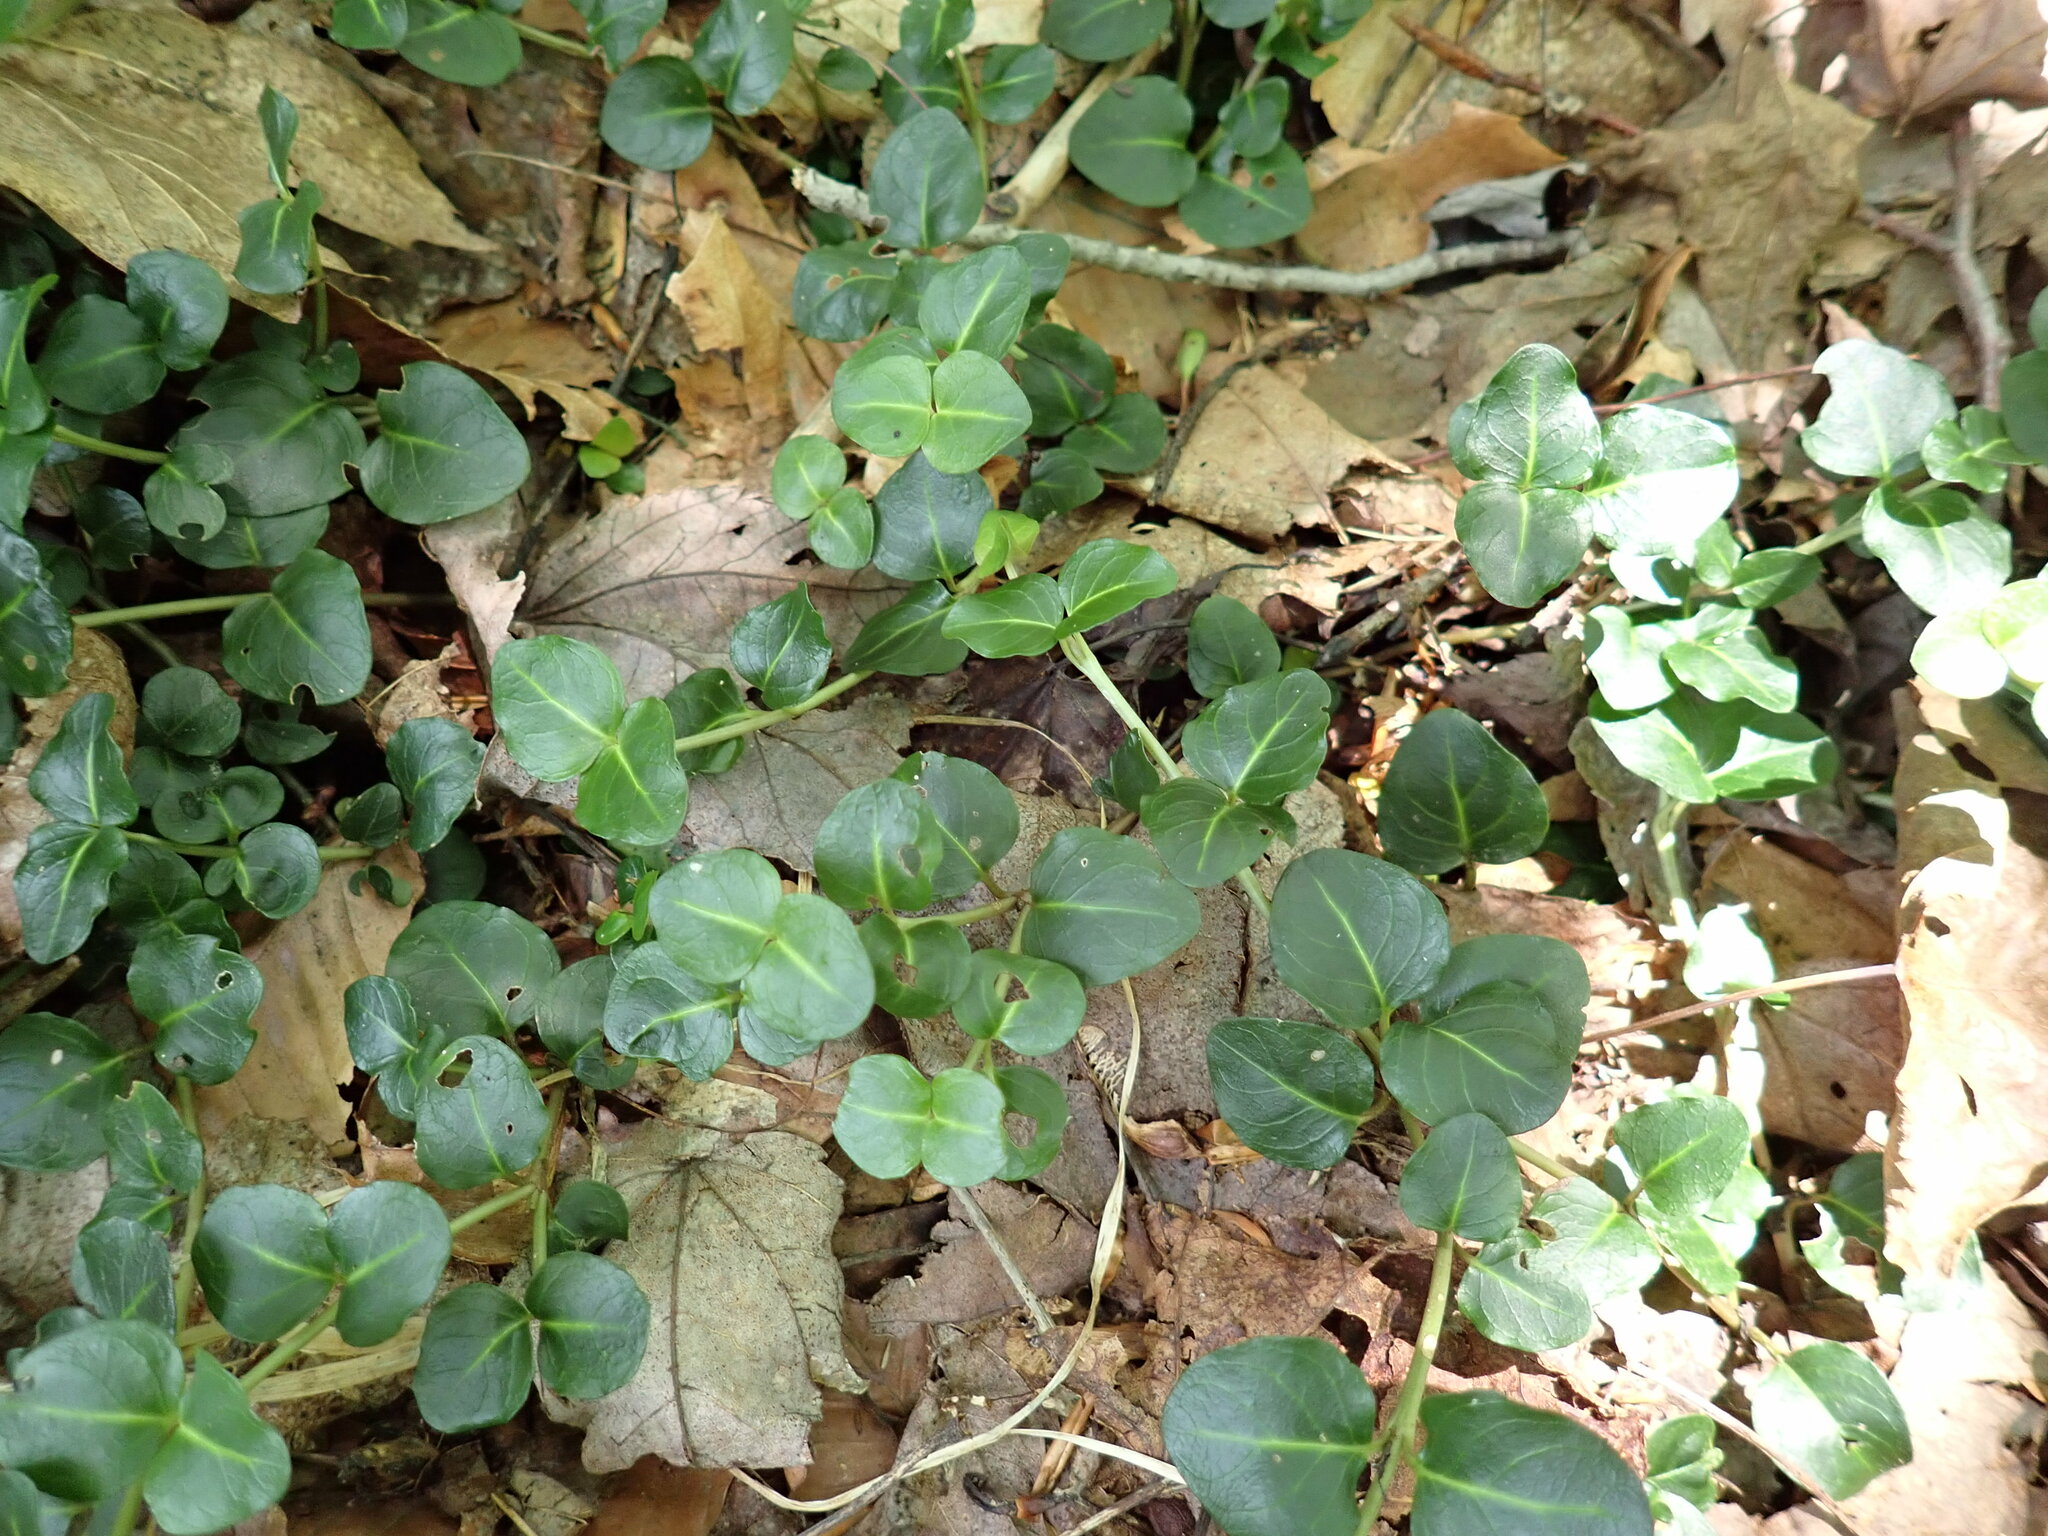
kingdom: Plantae
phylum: Tracheophyta
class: Magnoliopsida
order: Gentianales
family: Rubiaceae
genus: Mitchella
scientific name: Mitchella repens
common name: Partridge-berry
